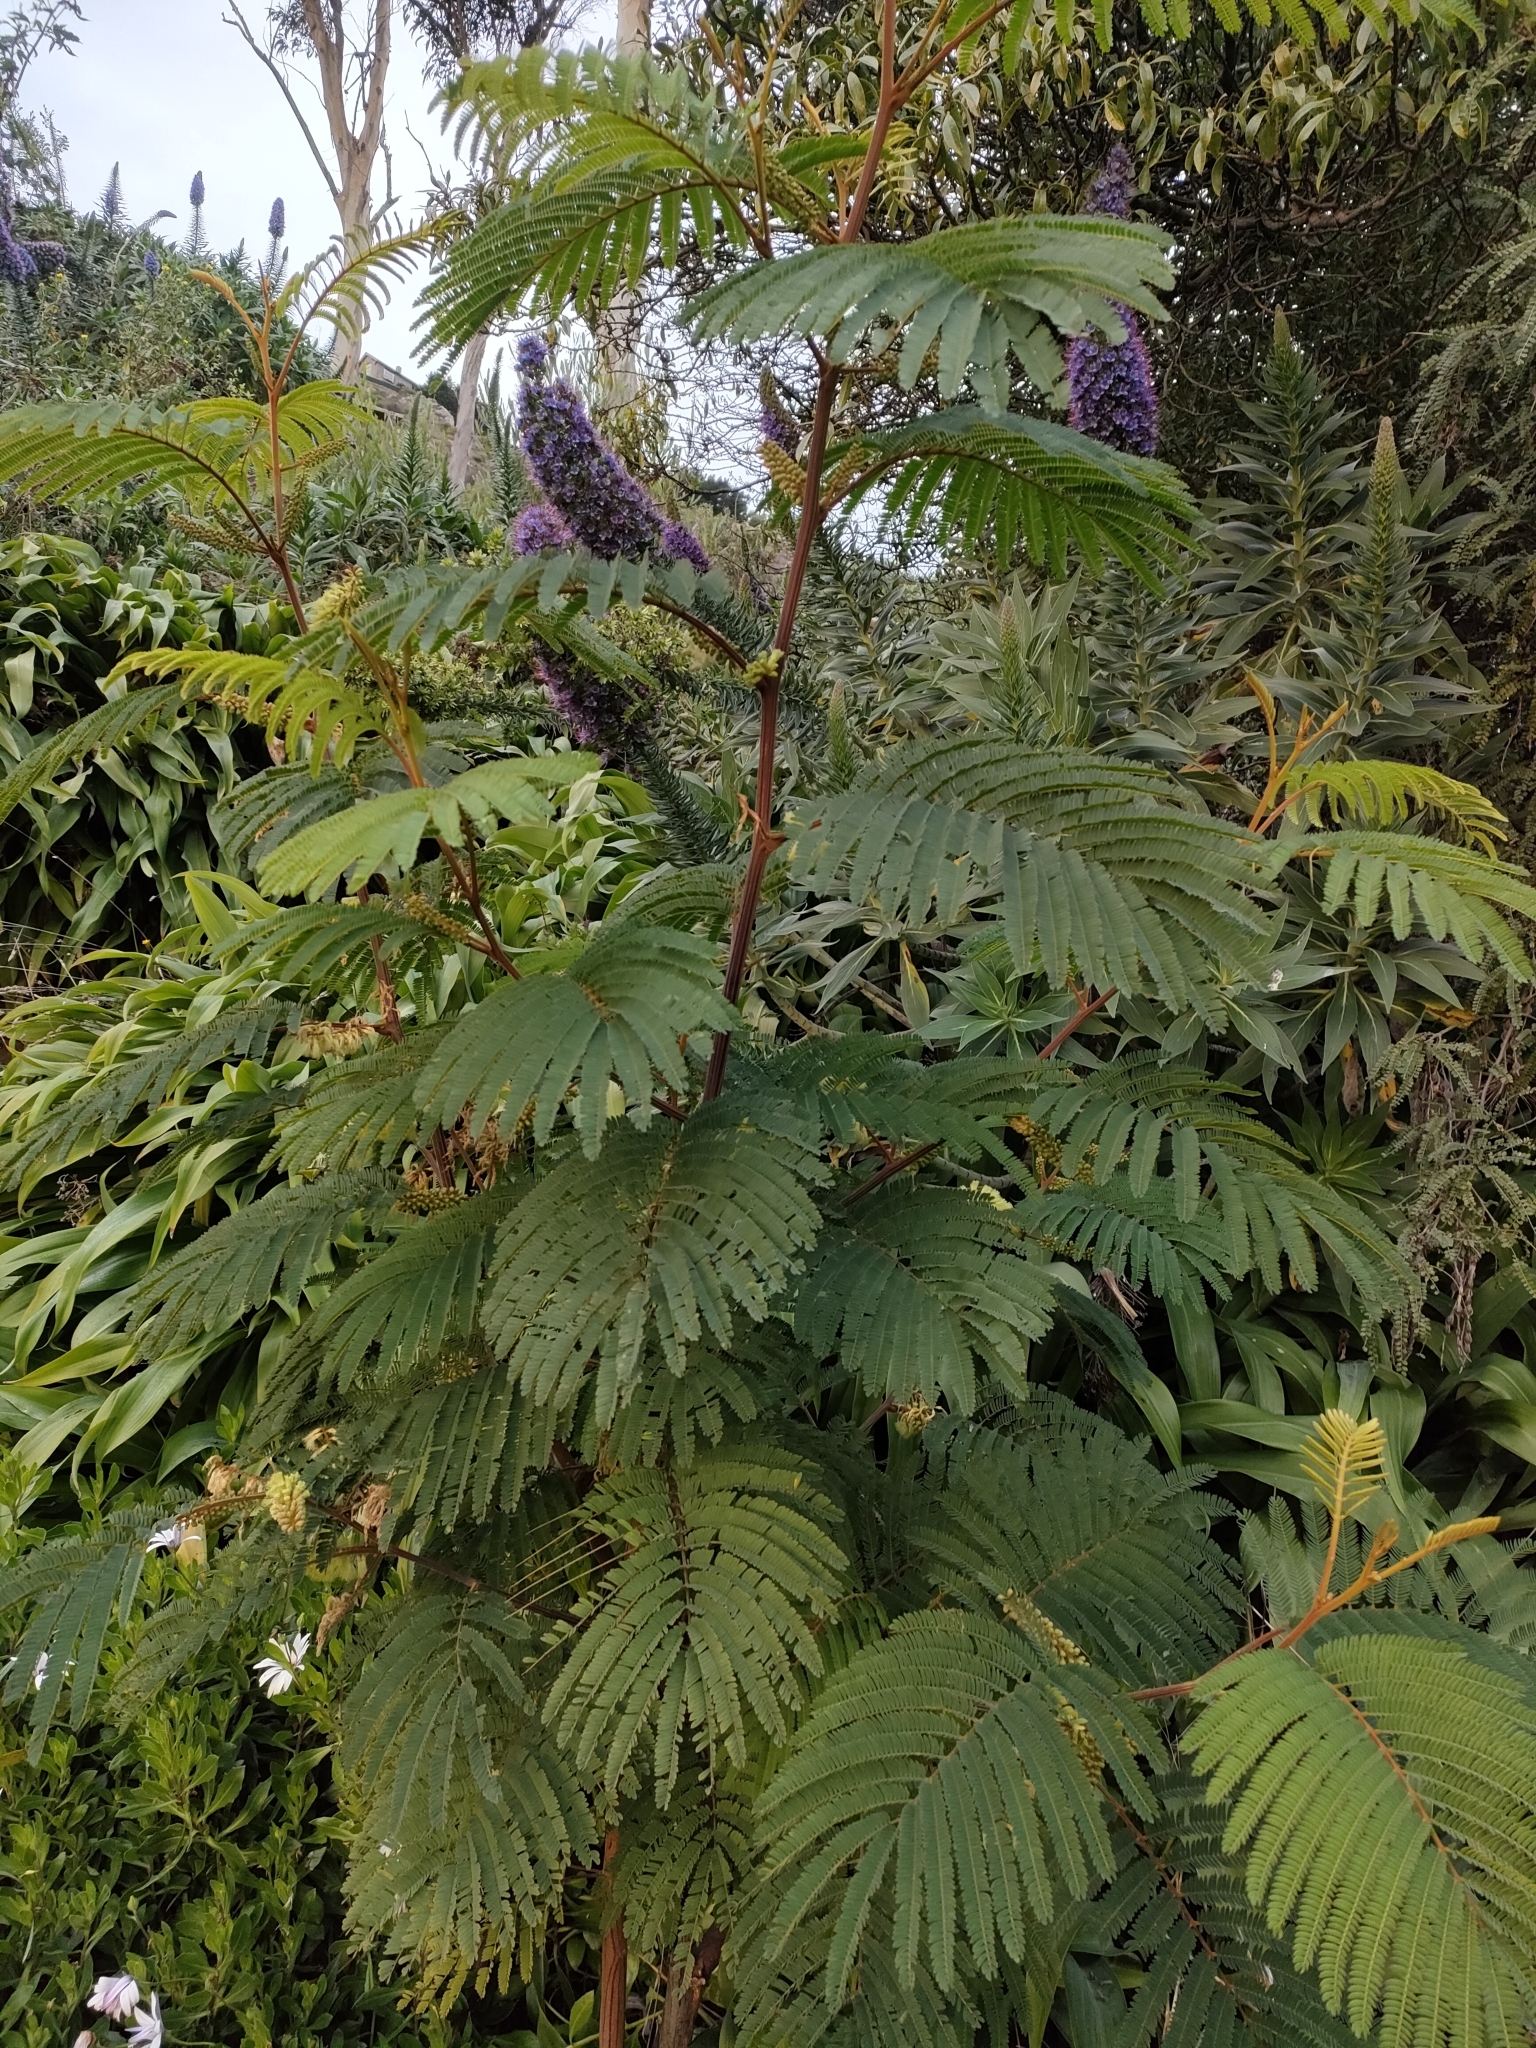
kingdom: Plantae
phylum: Tracheophyta
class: Magnoliopsida
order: Fabales
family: Fabaceae
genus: Paraserianthes
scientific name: Paraserianthes lophantha
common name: Plume albizia
